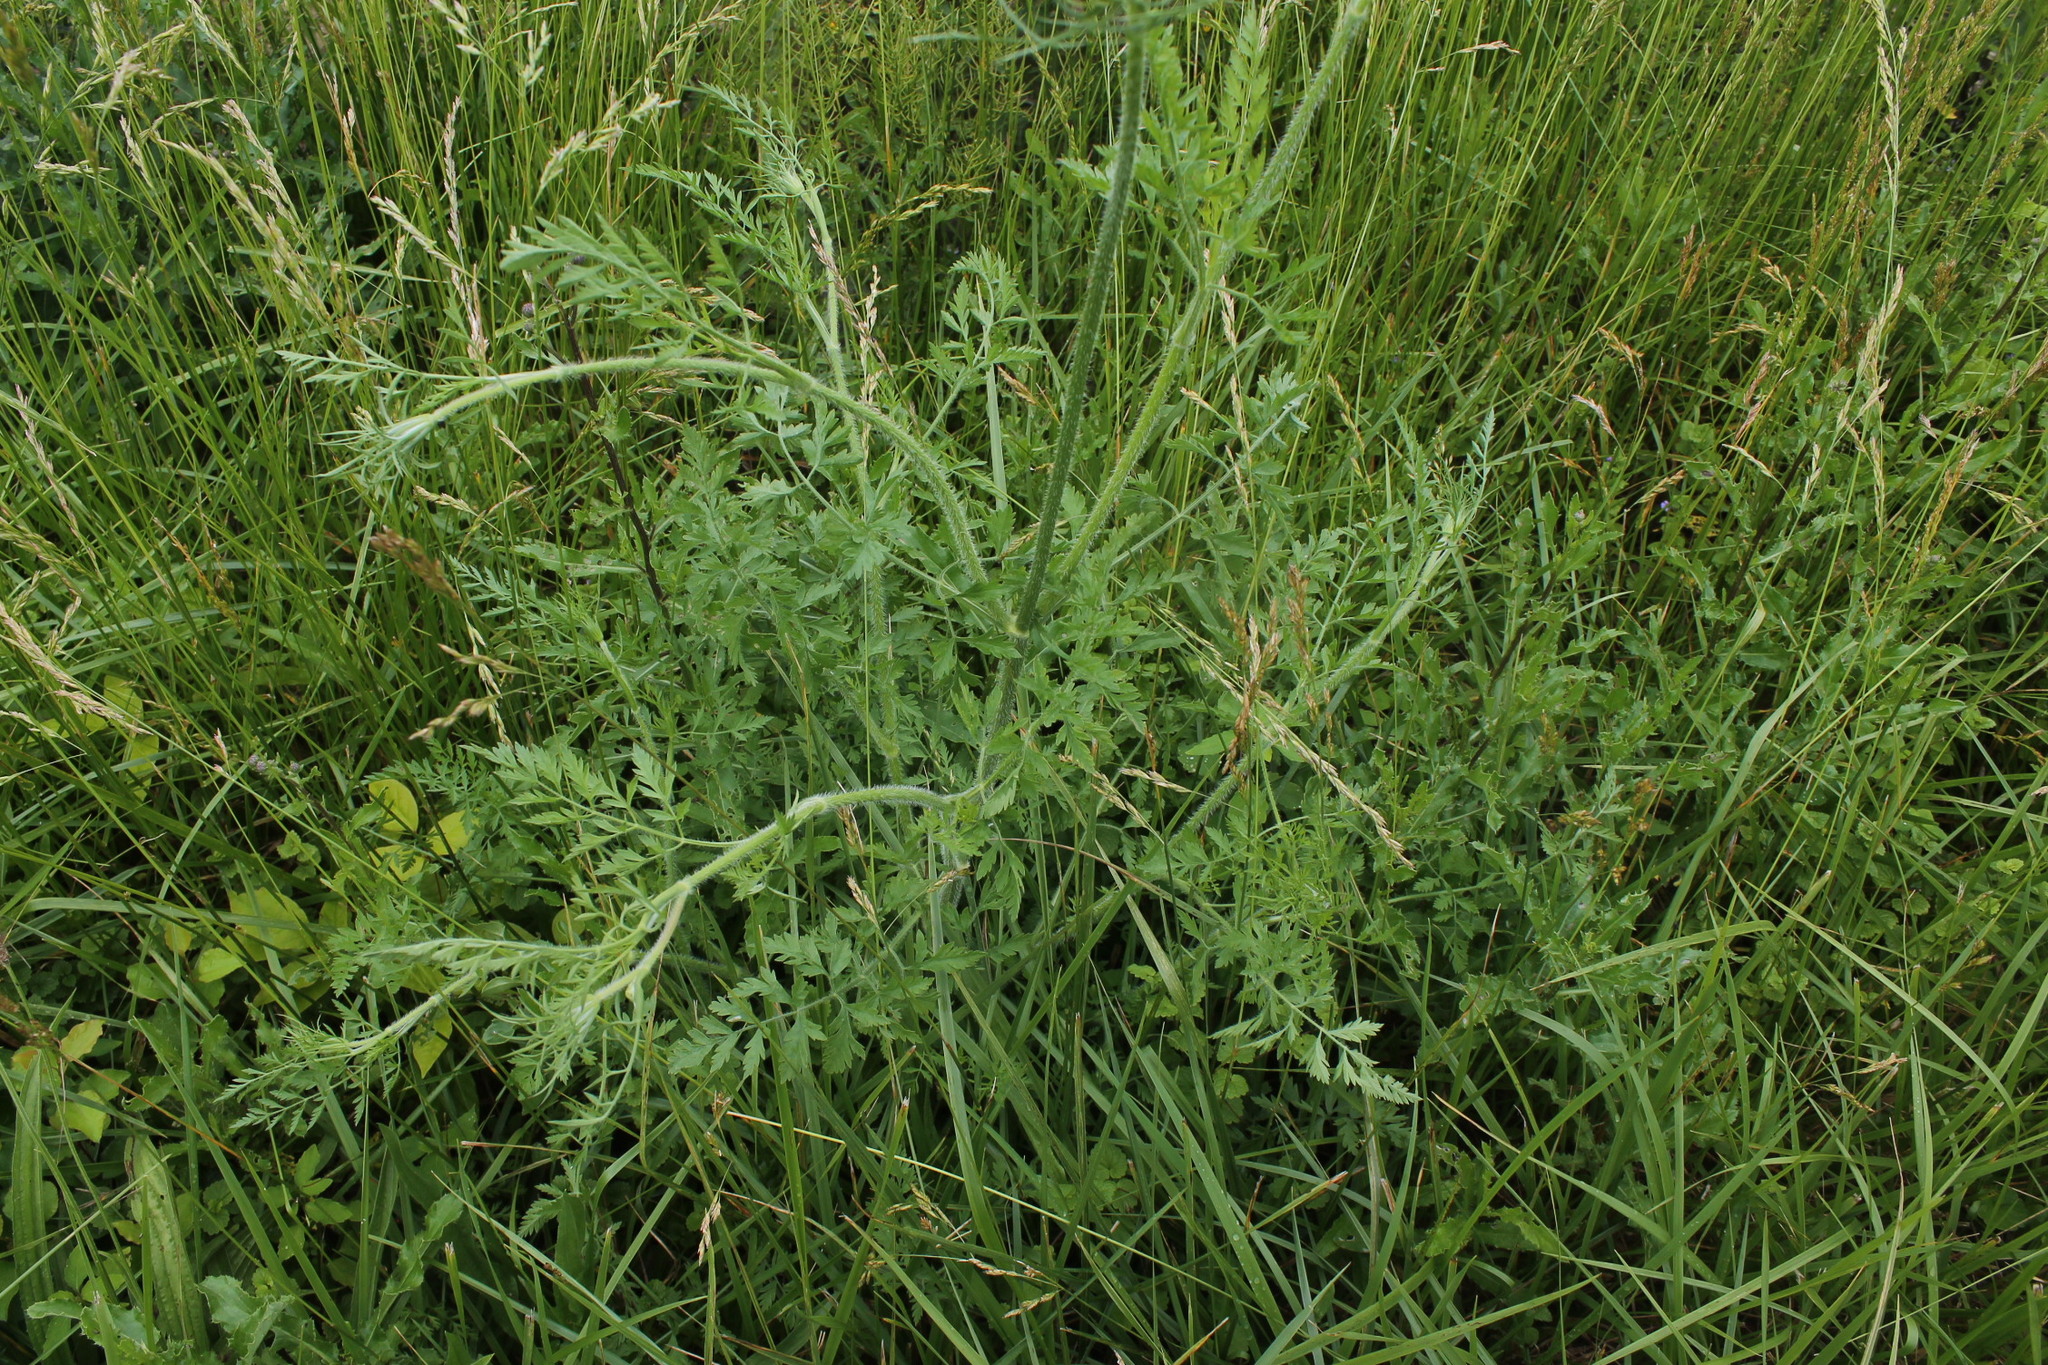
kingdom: Plantae
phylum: Tracheophyta
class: Magnoliopsida
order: Apiales
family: Apiaceae
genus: Daucus
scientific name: Daucus carota
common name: Wild carrot
